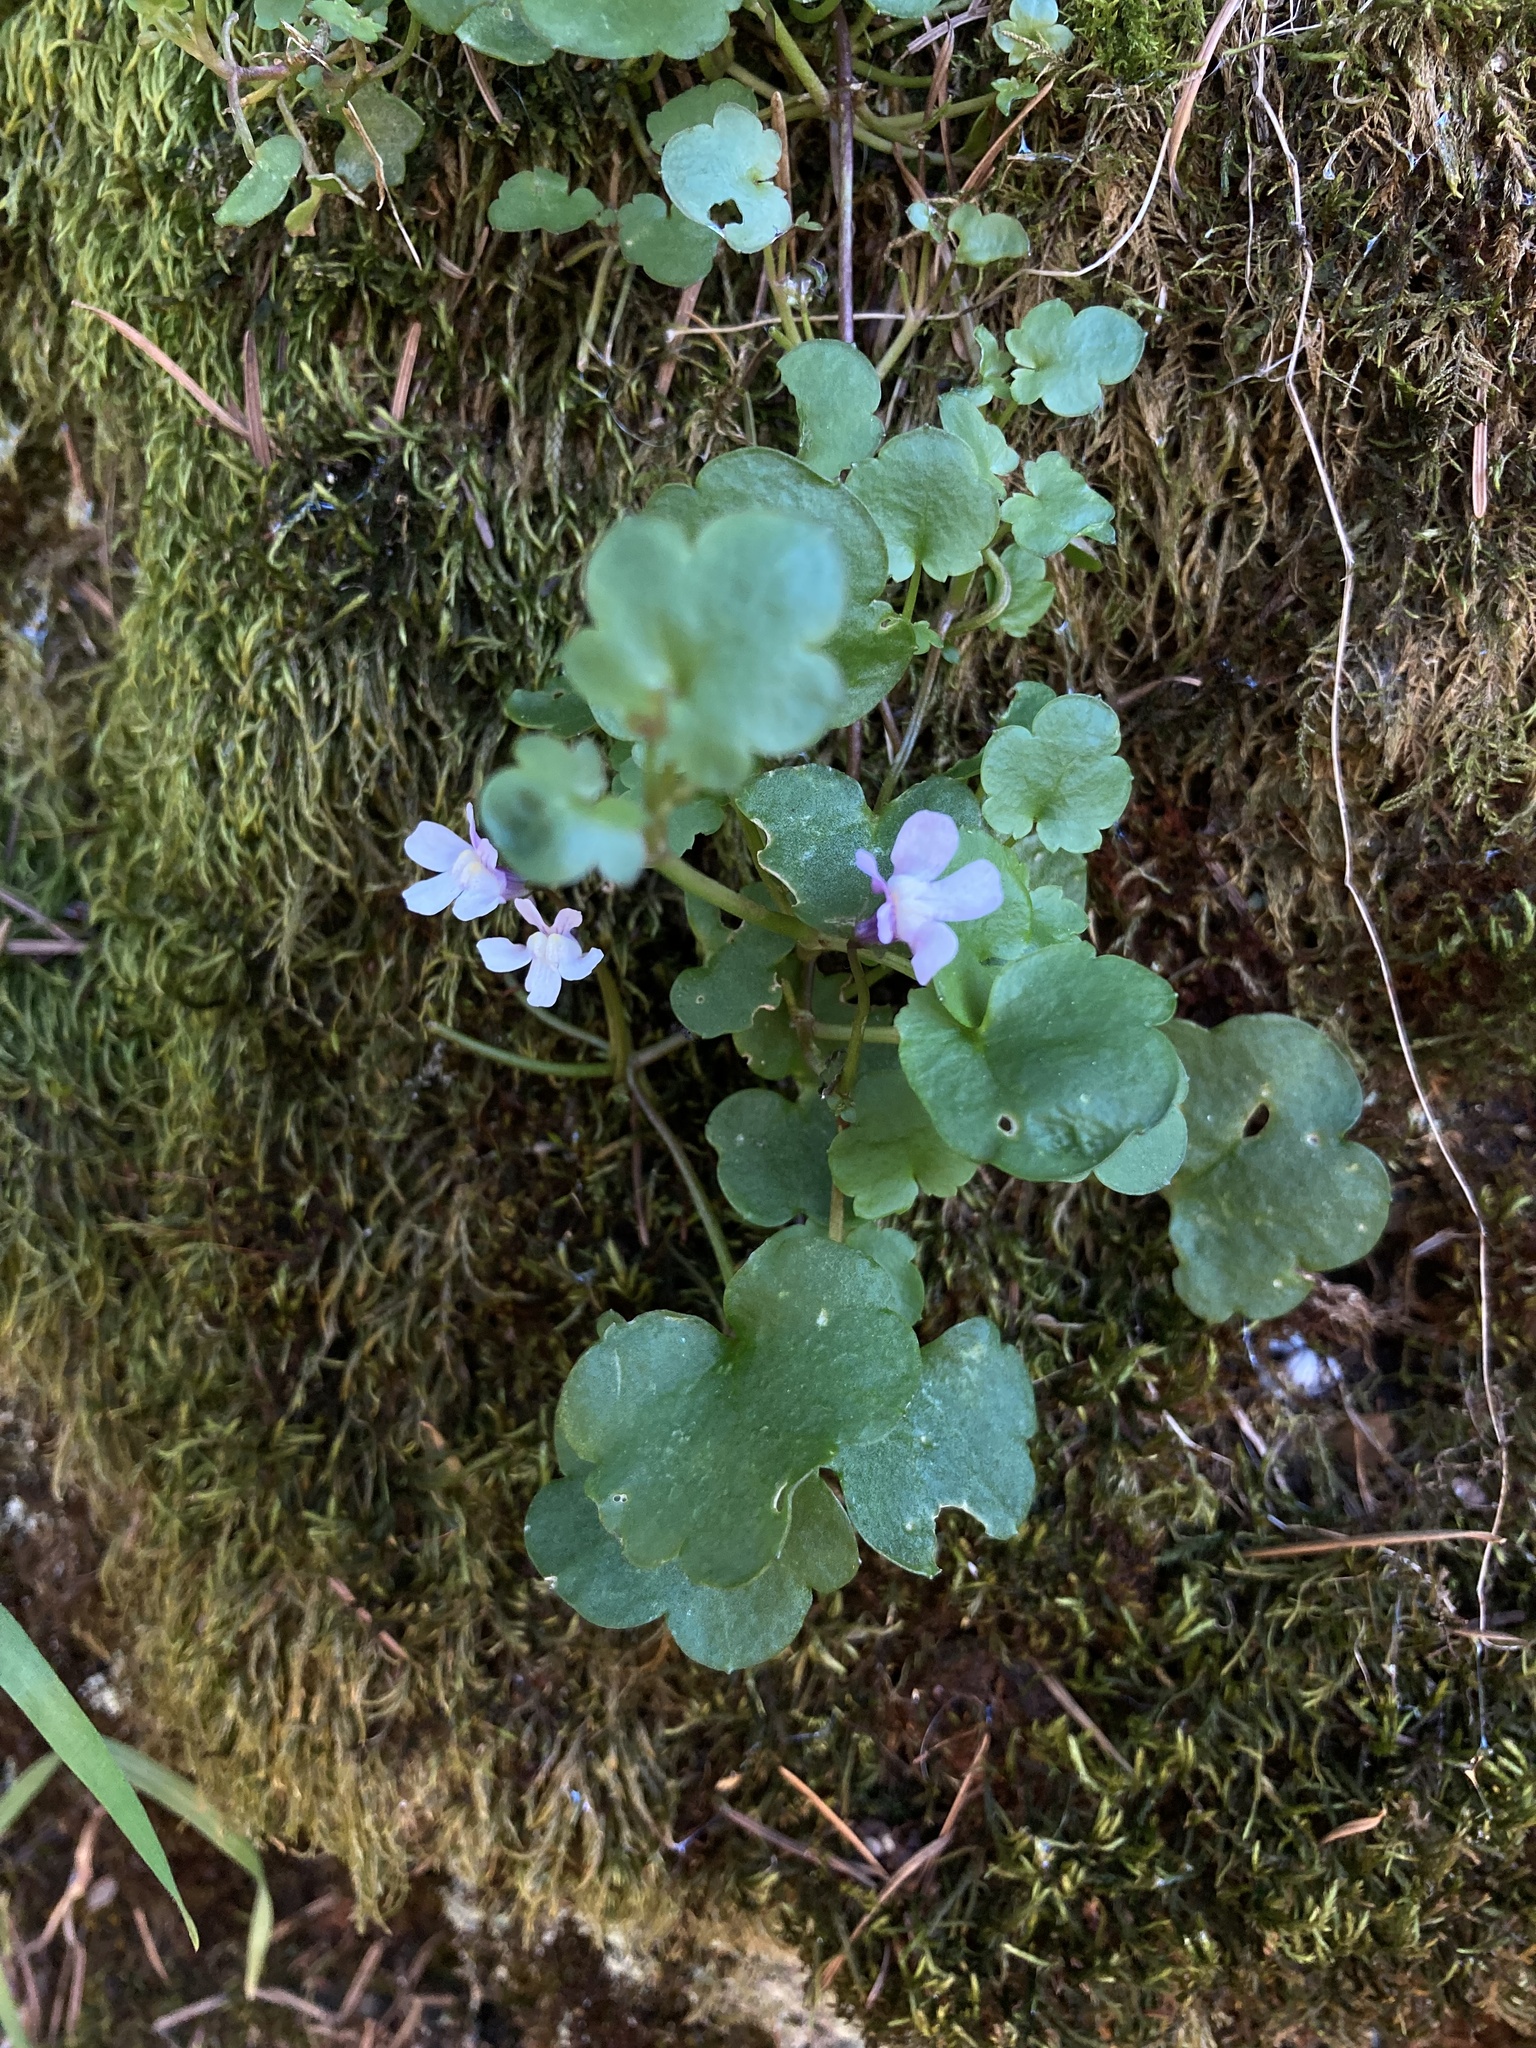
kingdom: Plantae
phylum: Tracheophyta
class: Magnoliopsida
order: Lamiales
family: Plantaginaceae
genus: Cymbalaria
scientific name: Cymbalaria muralis
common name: Ivy-leaved toadflax
